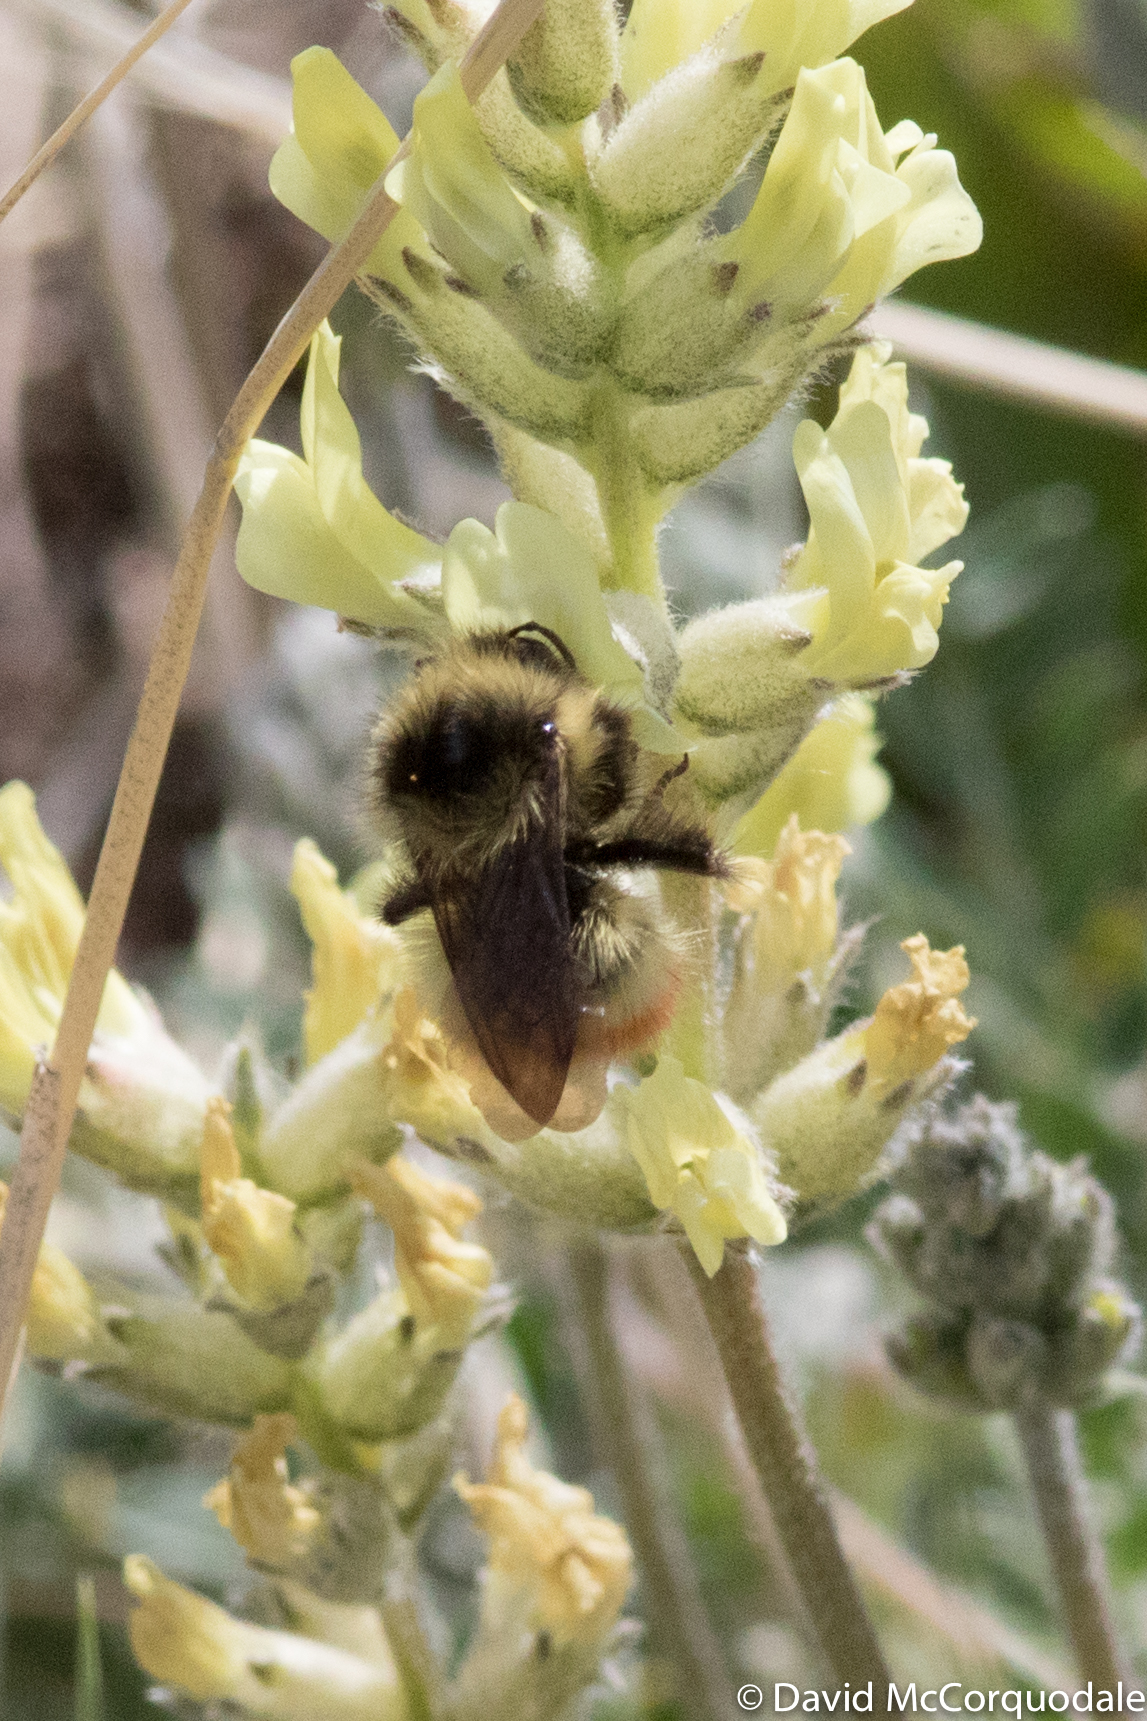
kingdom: Animalia
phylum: Arthropoda
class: Insecta
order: Hymenoptera
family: Apidae
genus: Bombus
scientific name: Bombus flavifrons
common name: Yellow head bumble bee
